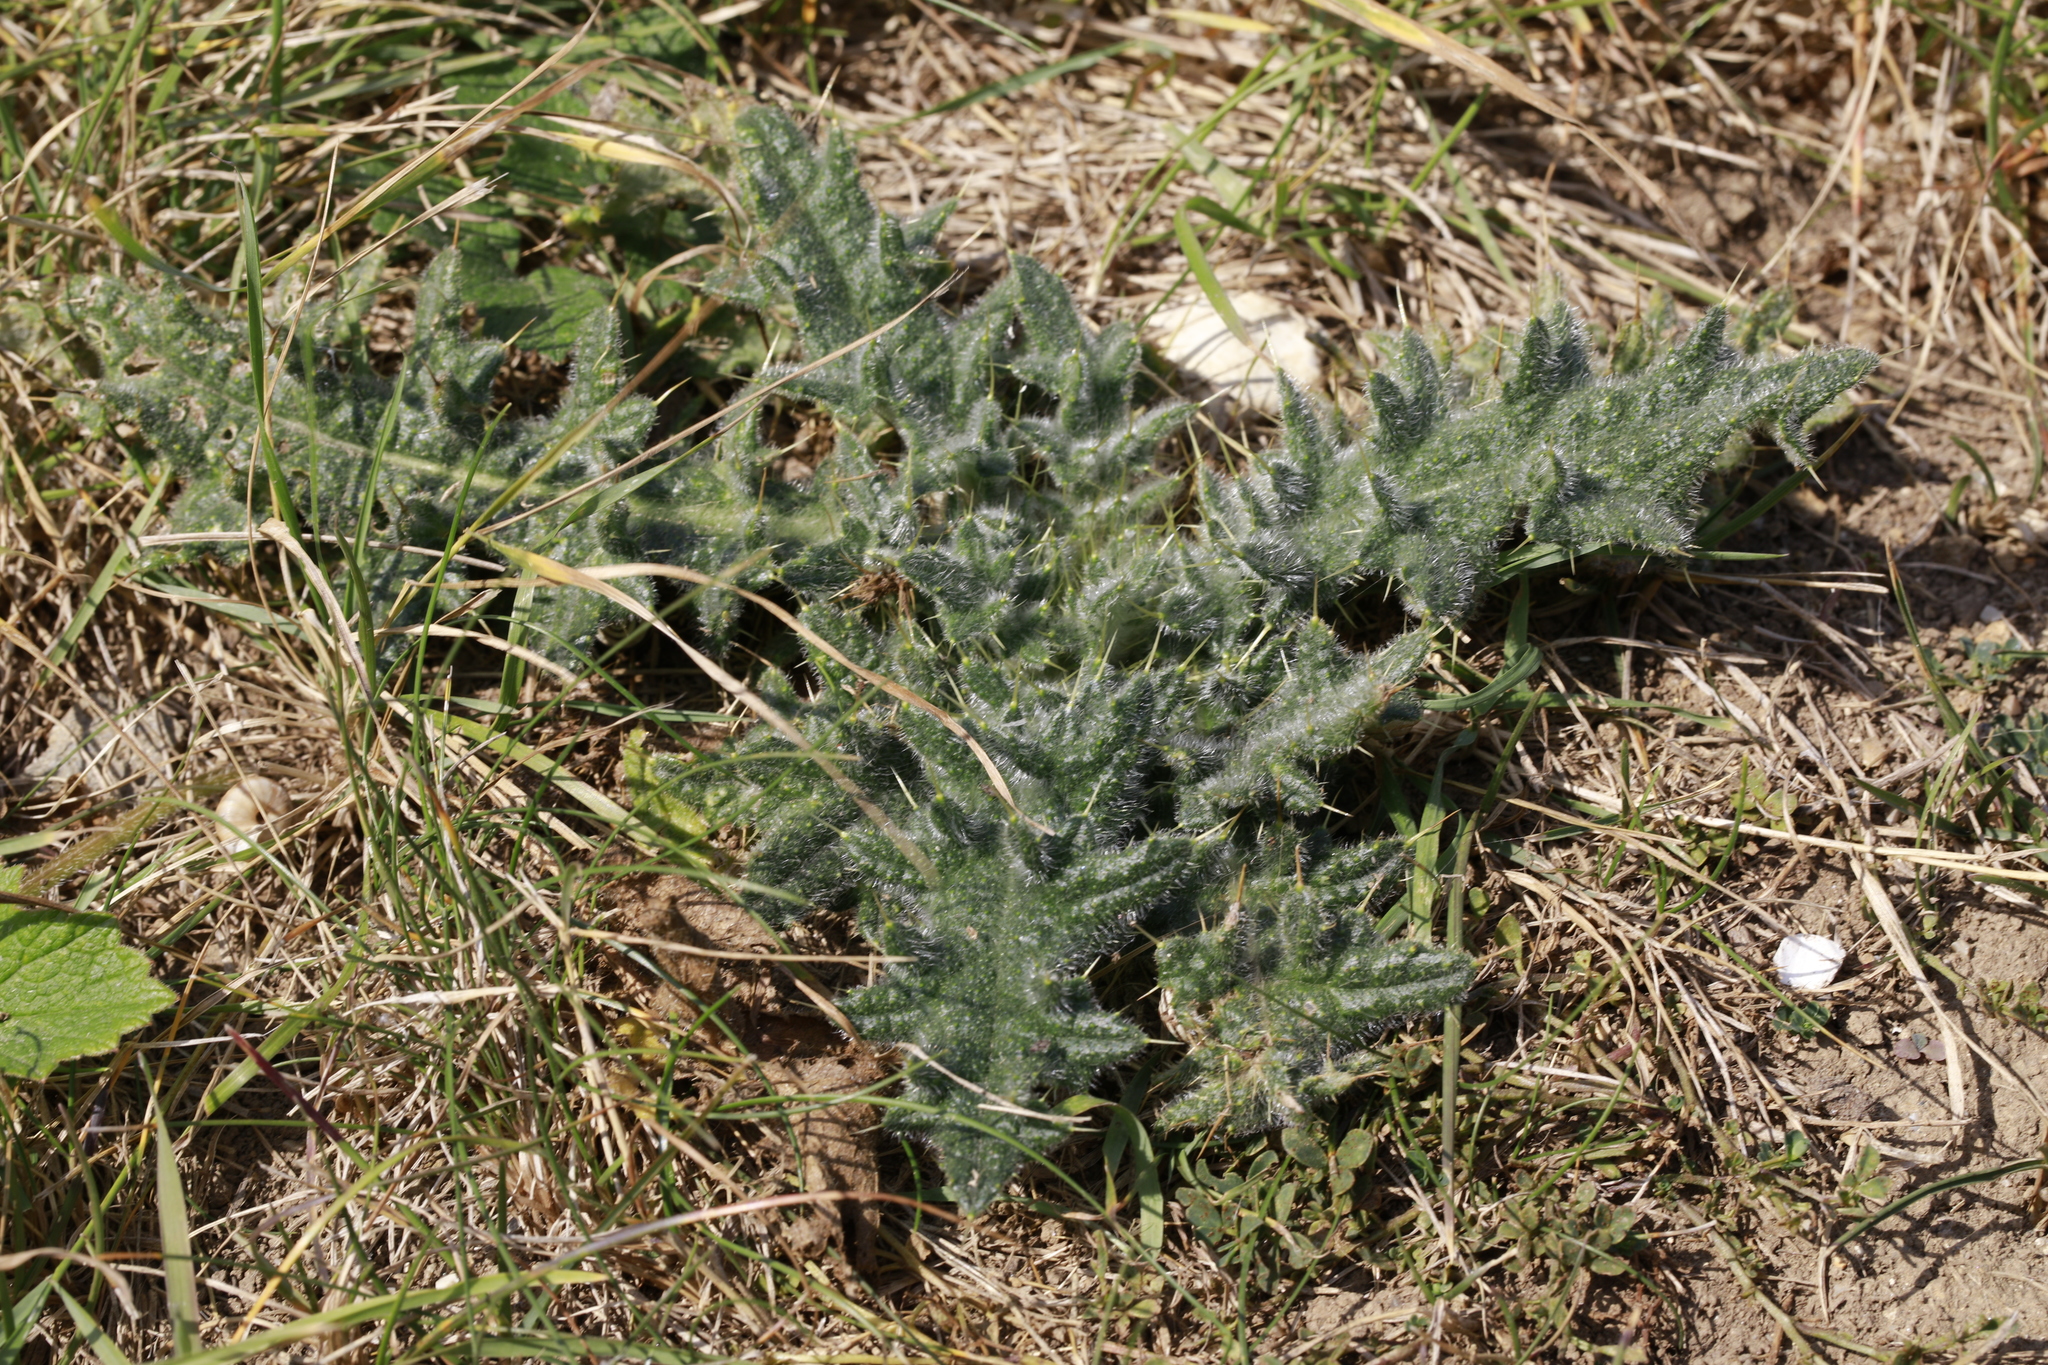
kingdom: Plantae
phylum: Tracheophyta
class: Magnoliopsida
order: Asterales
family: Asteraceae
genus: Cirsium
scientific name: Cirsium vulgare
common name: Bull thistle
